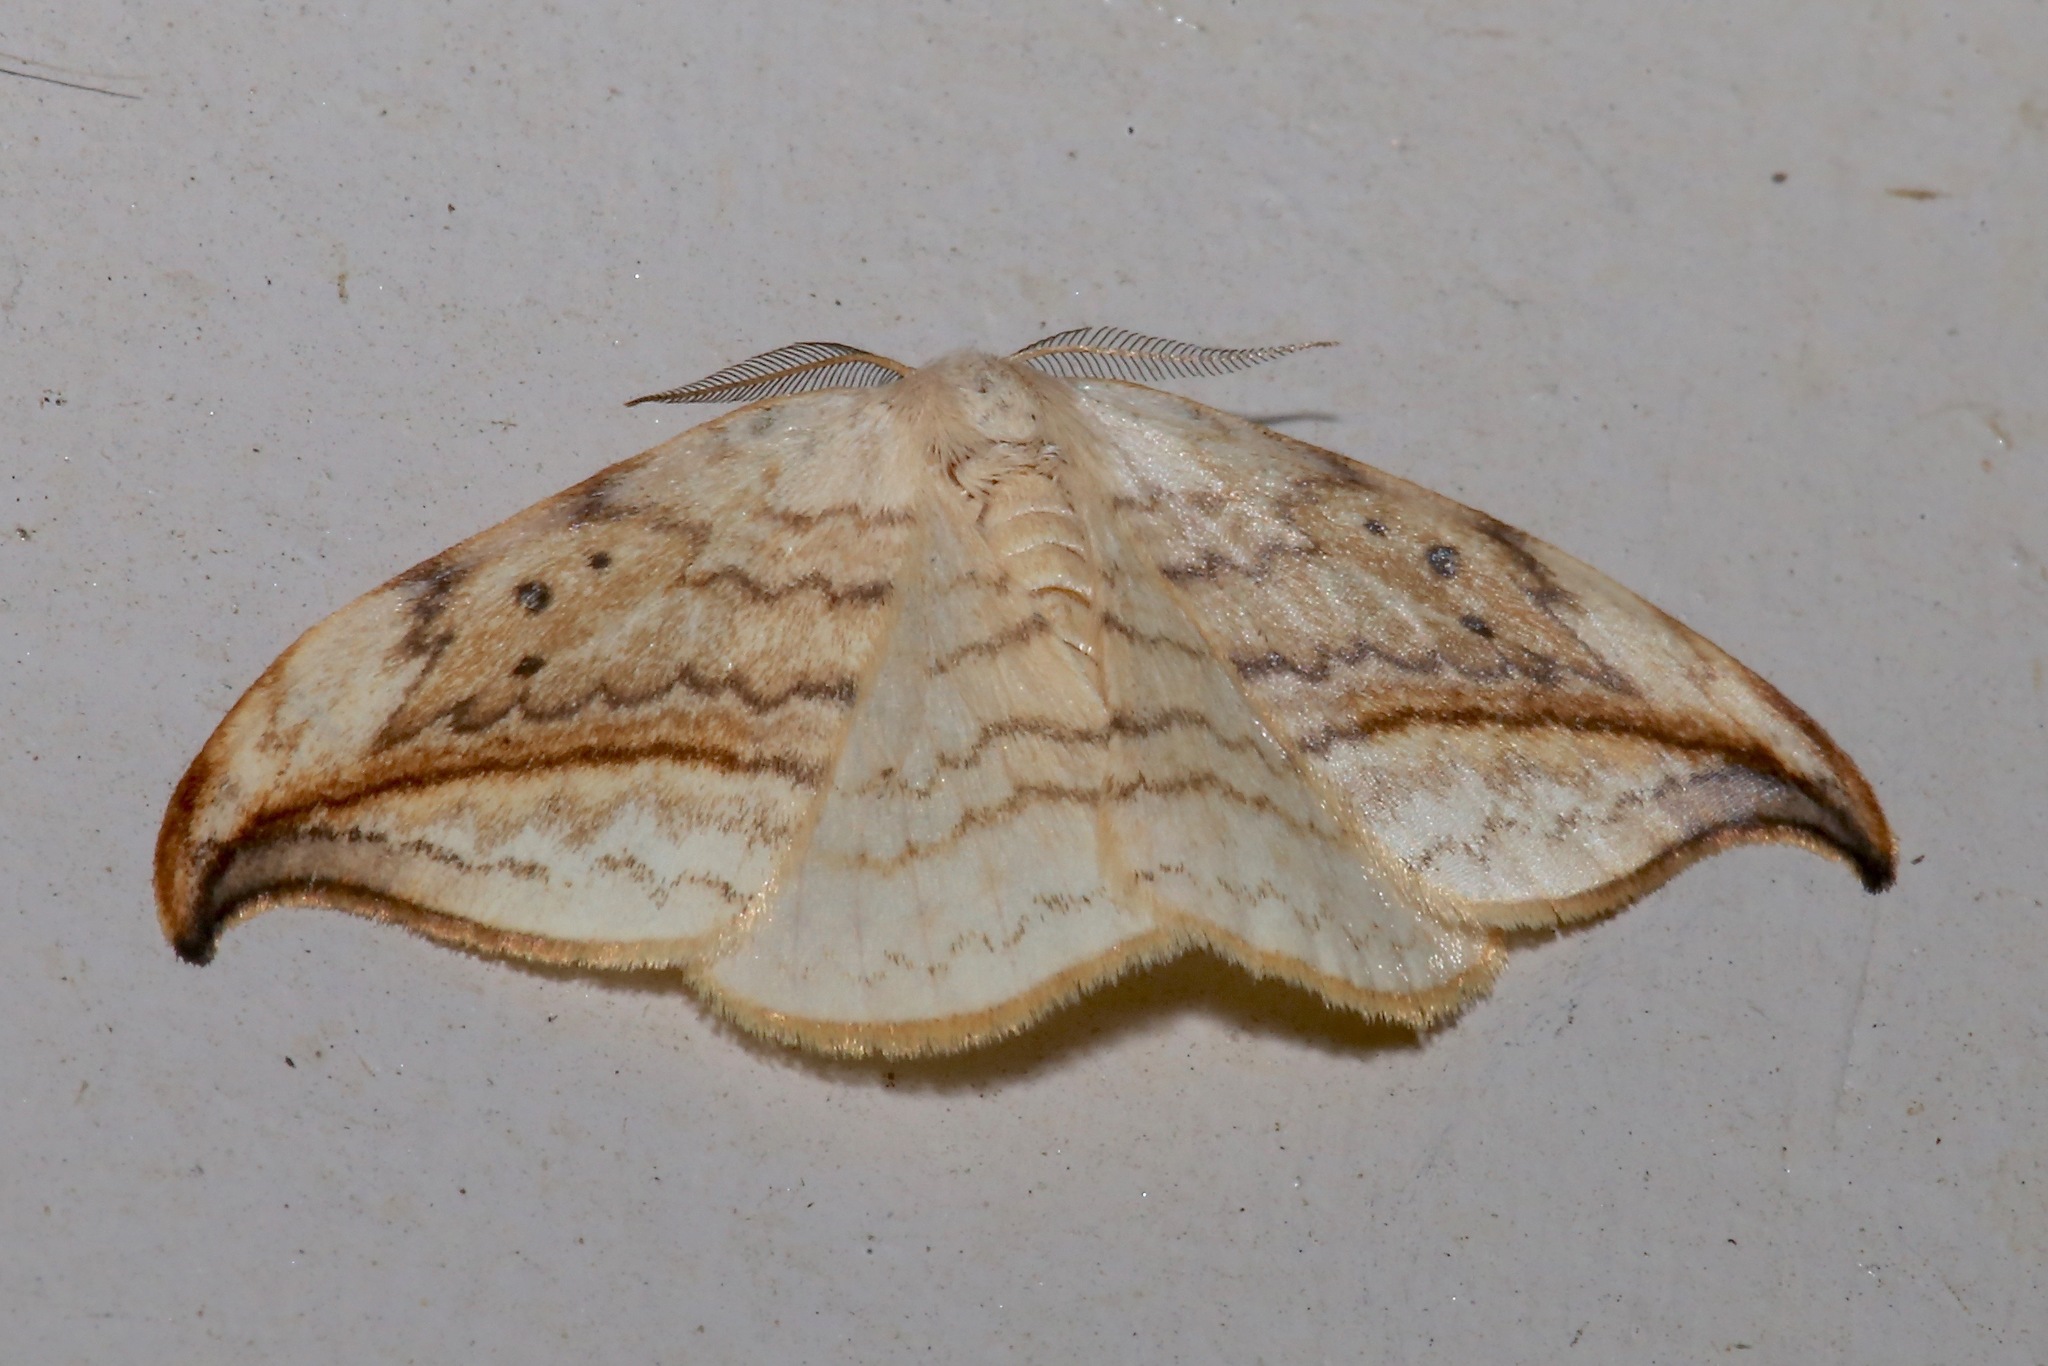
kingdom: Animalia
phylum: Arthropoda
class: Insecta
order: Lepidoptera
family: Drepanidae
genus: Drepana
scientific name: Drepana arcuata
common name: Arched hooktip moth
